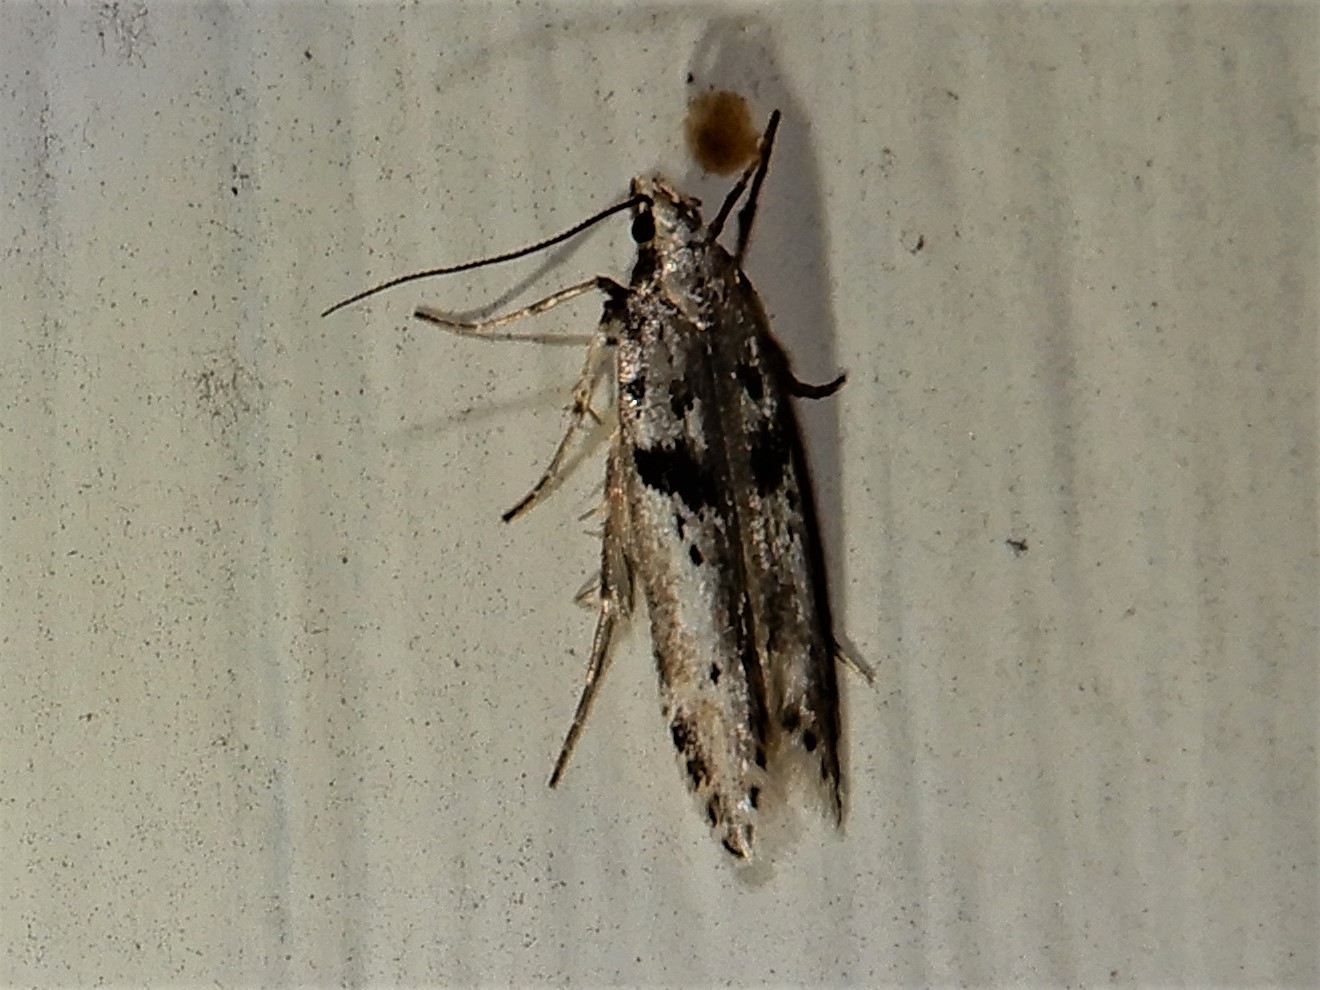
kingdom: Animalia
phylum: Arthropoda
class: Insecta
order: Lepidoptera
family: Gelechiidae
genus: Aristotelia
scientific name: Aristotelia paradesma
